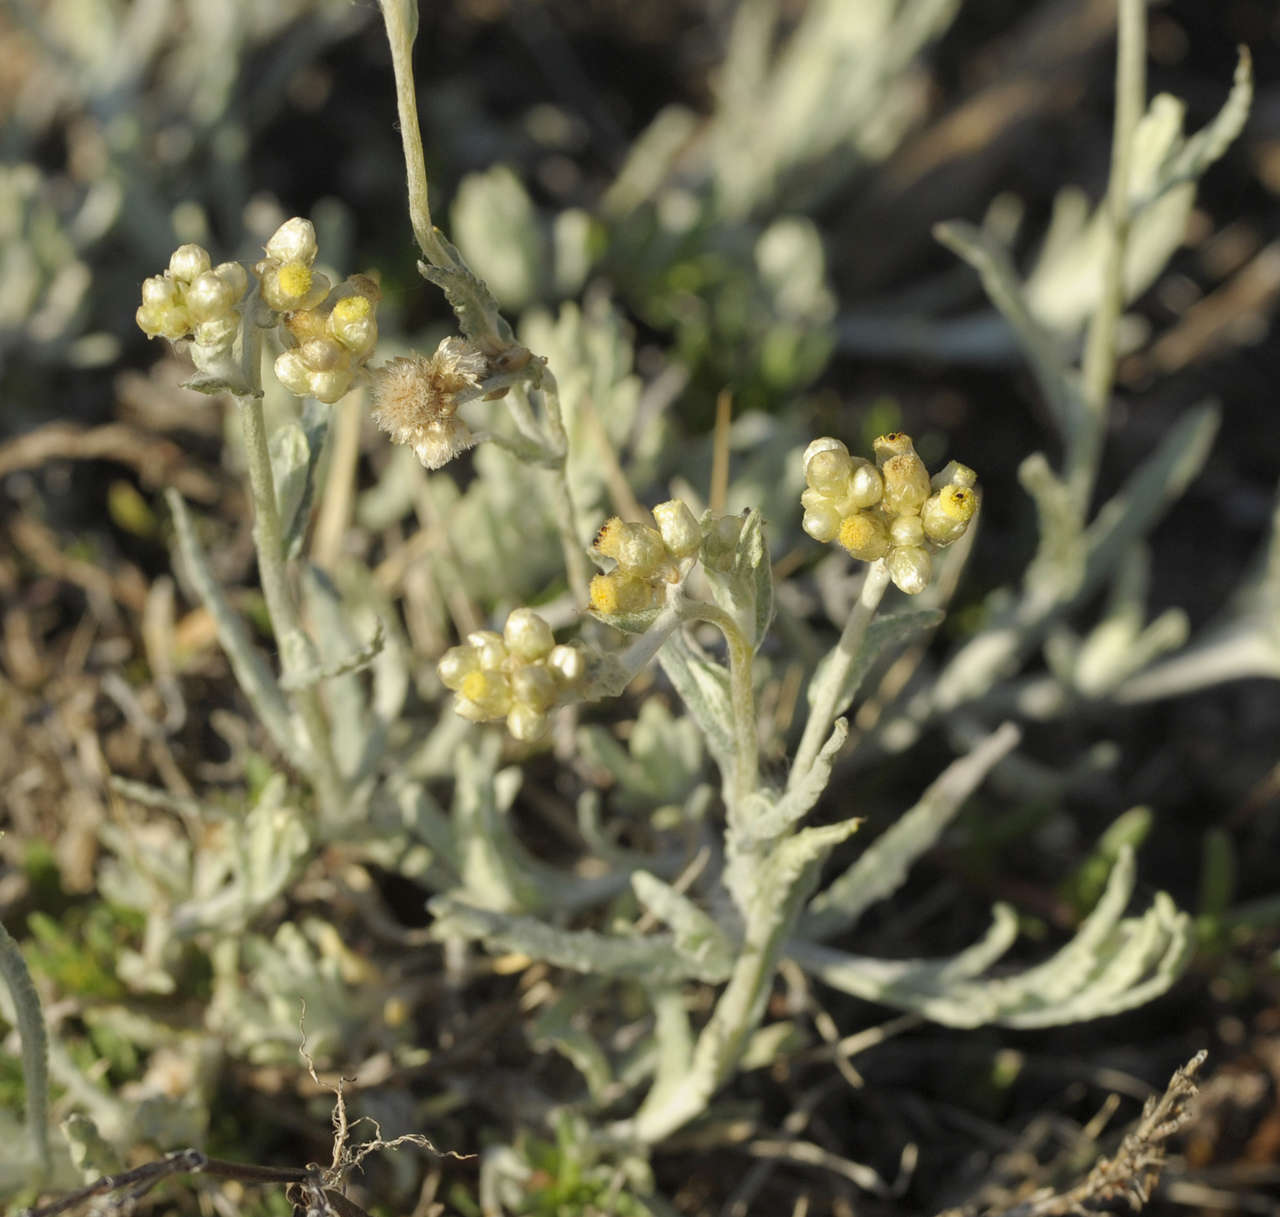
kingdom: Plantae
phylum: Tracheophyta
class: Magnoliopsida
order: Asterales
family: Asteraceae
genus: Helichrysum
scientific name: Helichrysum luteoalbum
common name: Daisy
